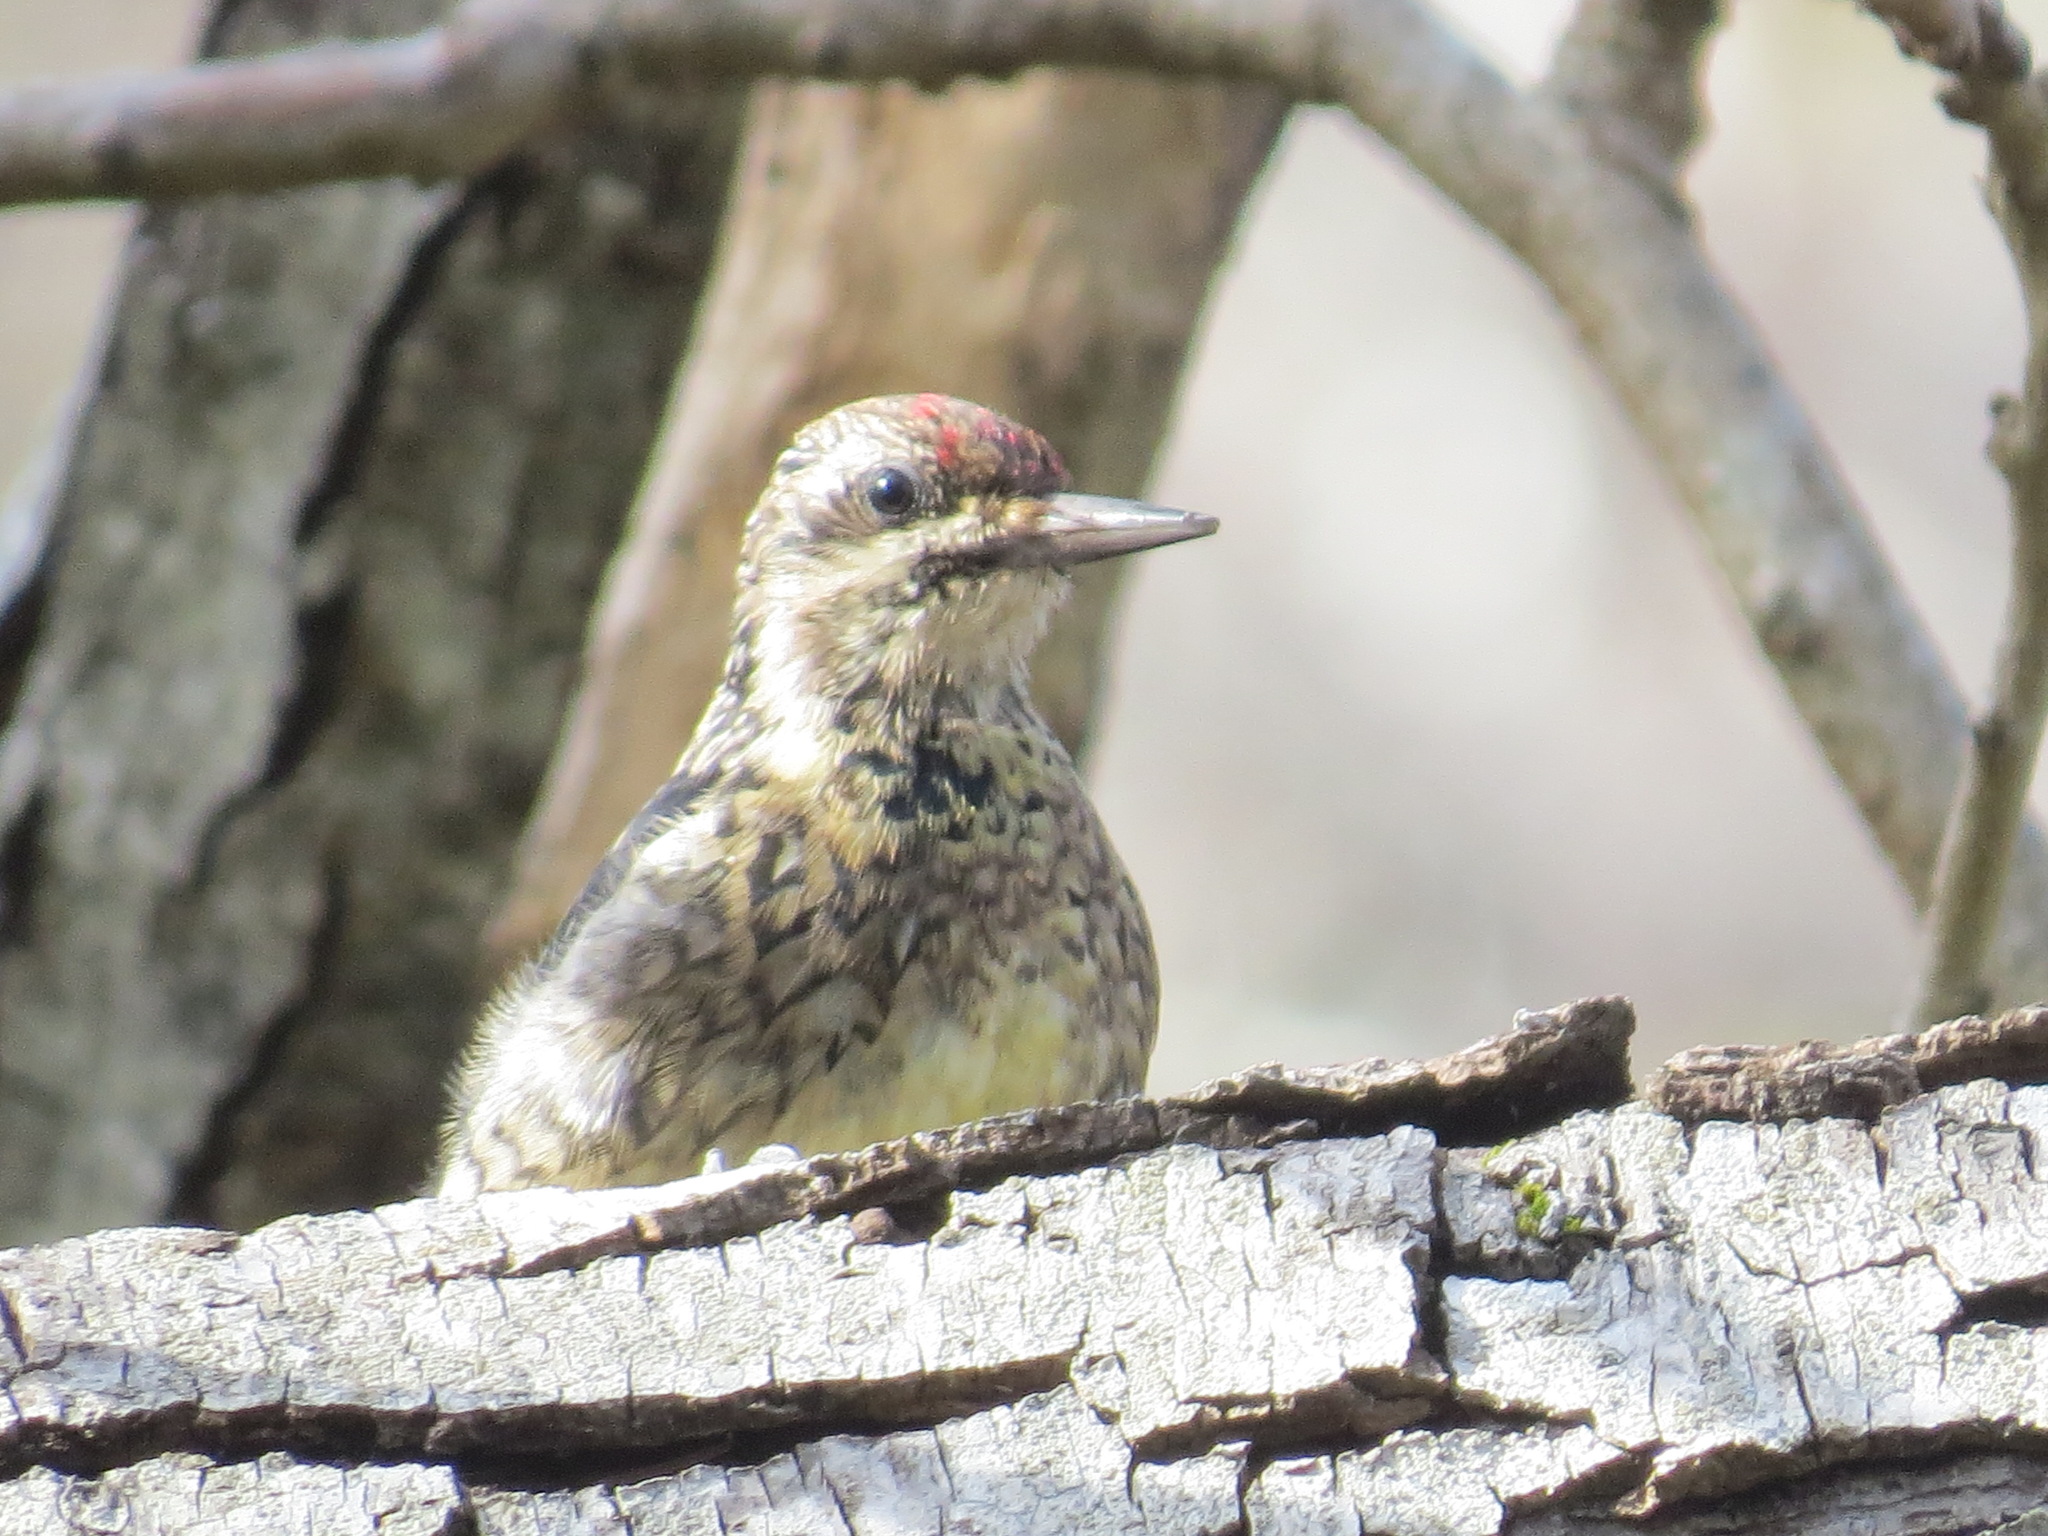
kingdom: Animalia
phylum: Chordata
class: Aves
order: Piciformes
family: Picidae
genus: Sphyrapicus
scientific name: Sphyrapicus varius
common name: Yellow-bellied sapsucker
